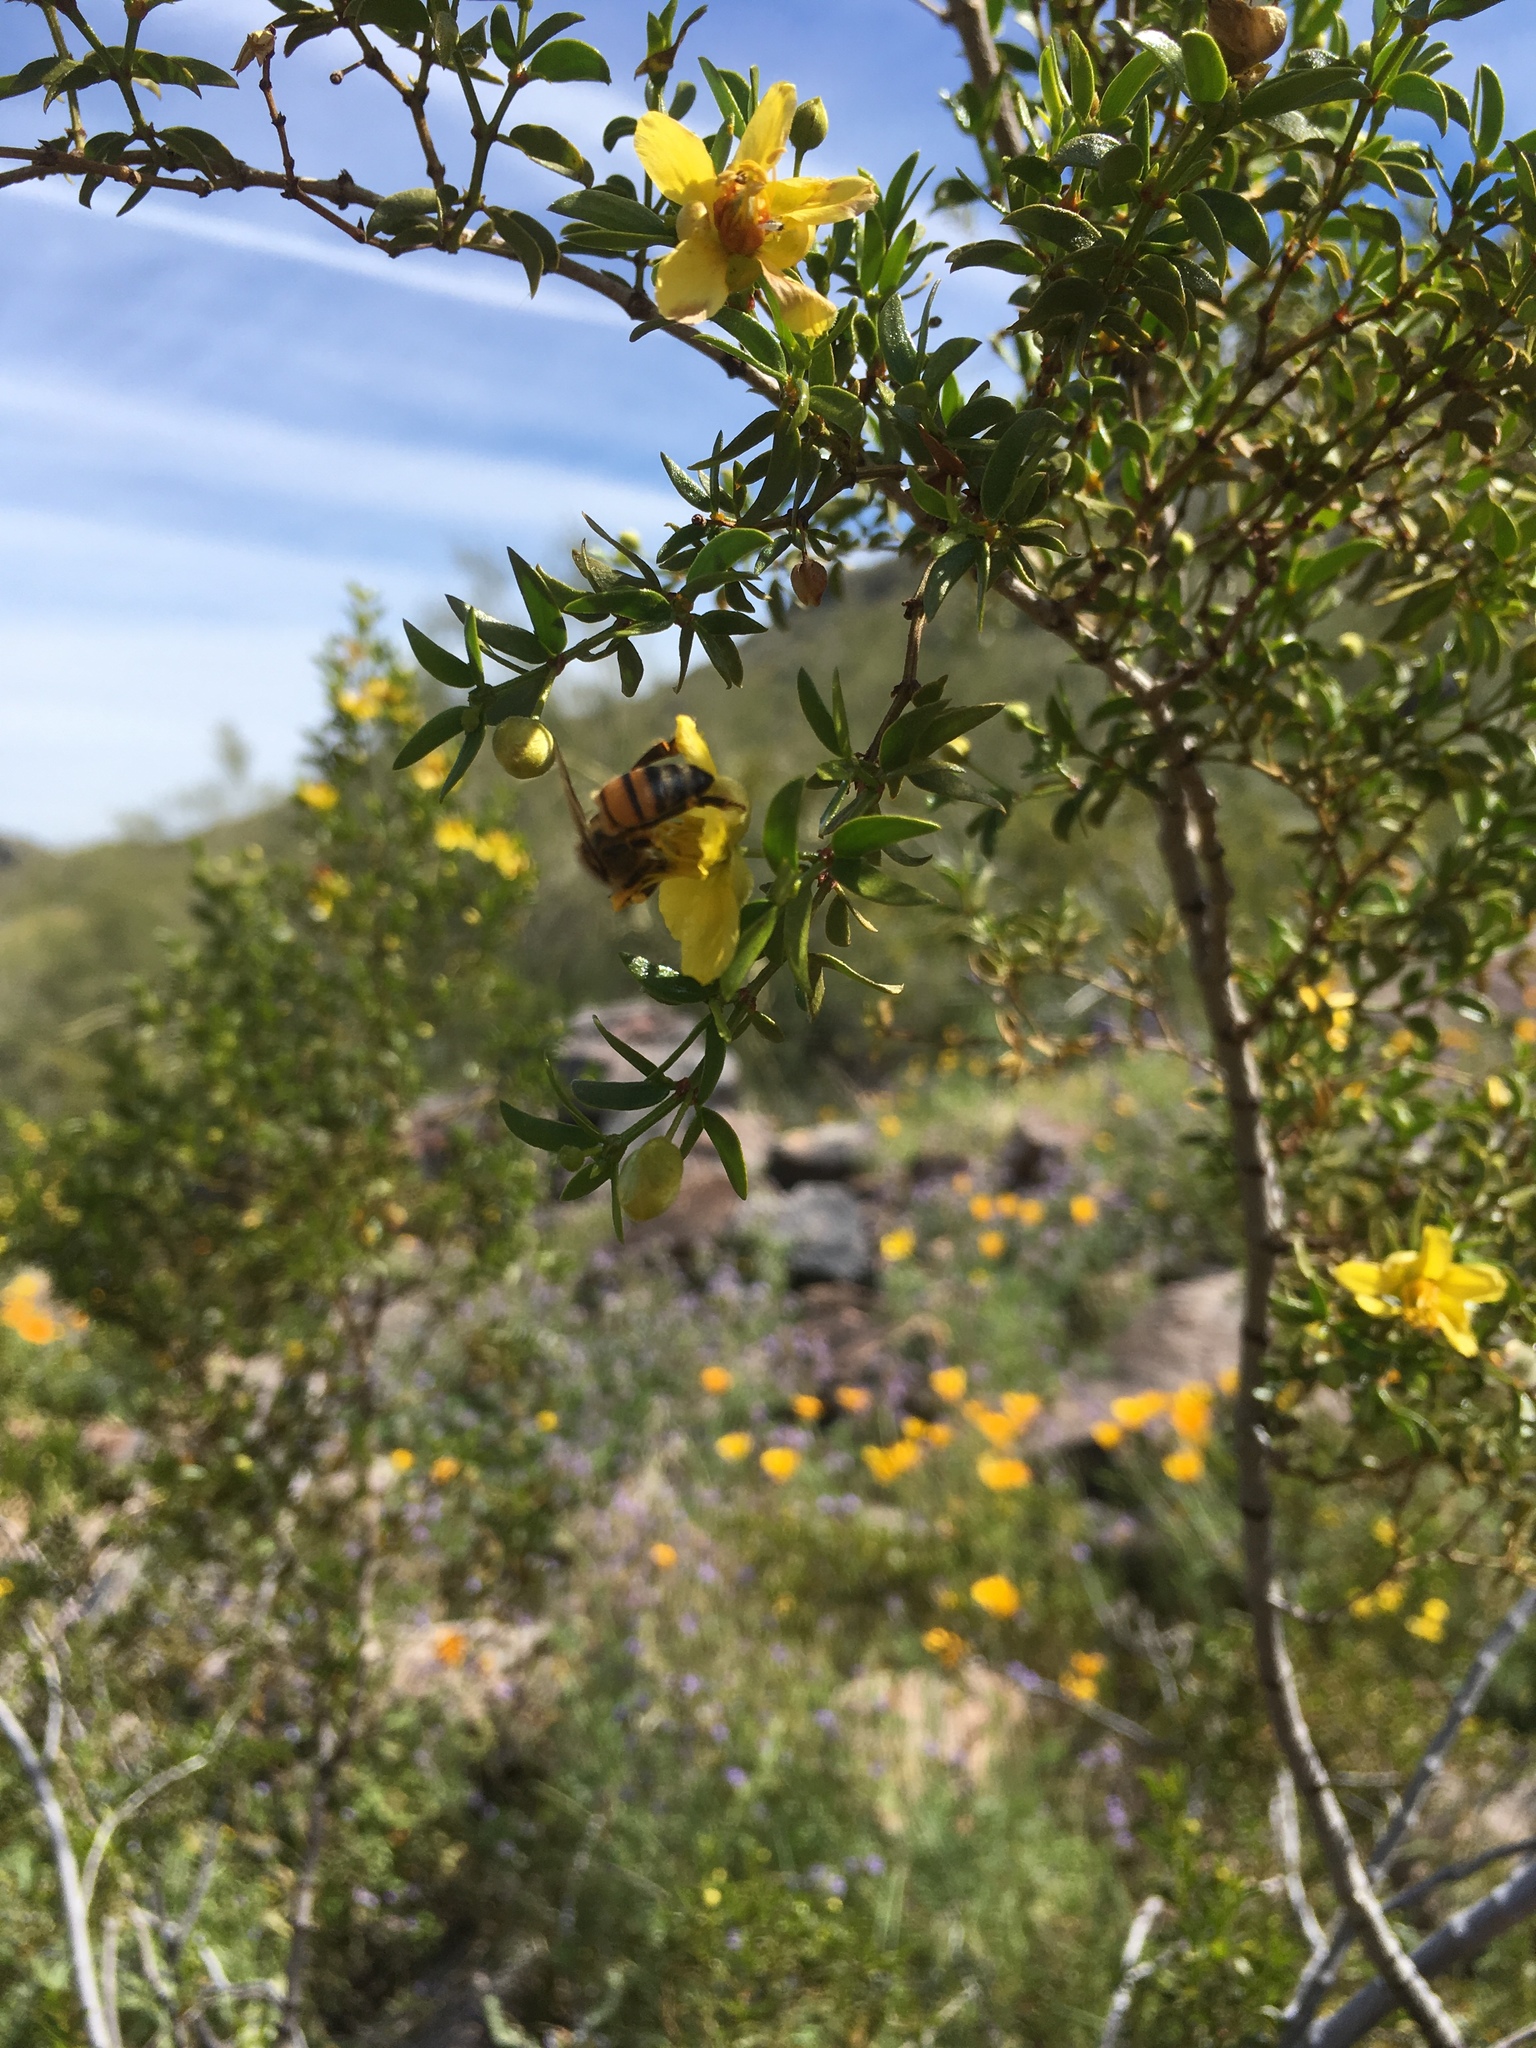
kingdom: Animalia
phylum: Arthropoda
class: Insecta
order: Hymenoptera
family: Apidae
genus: Apis
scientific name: Apis mellifera
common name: Honey bee
